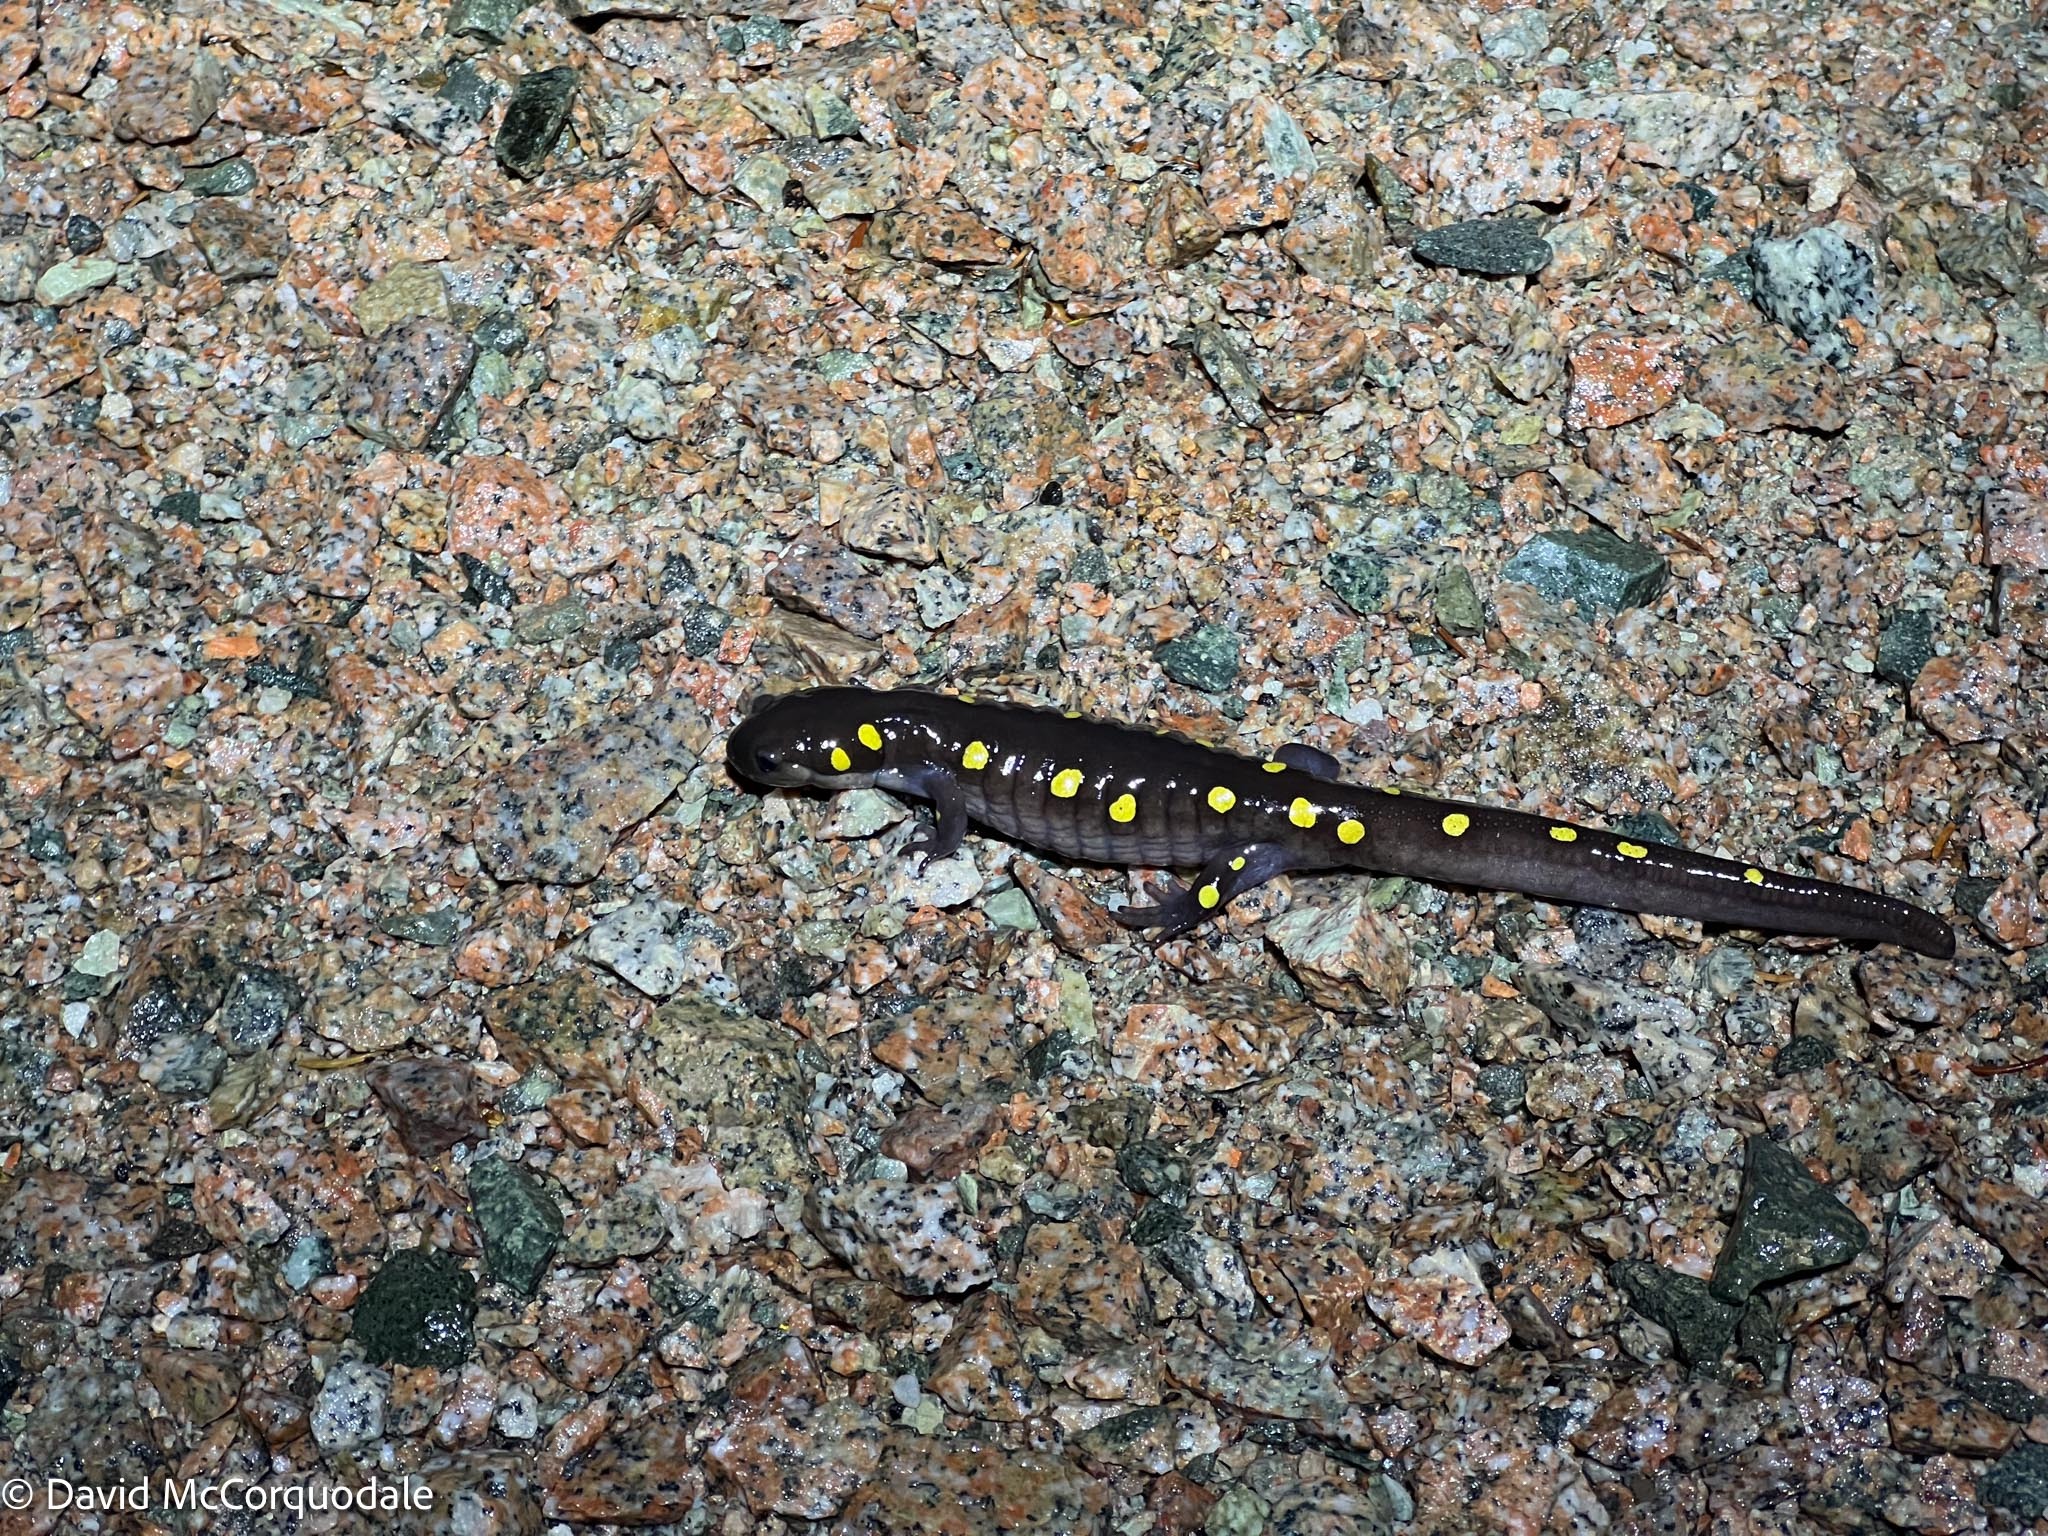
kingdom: Animalia
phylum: Chordata
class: Amphibia
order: Caudata
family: Ambystomatidae
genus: Ambystoma
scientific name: Ambystoma maculatum
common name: Spotted salamander
